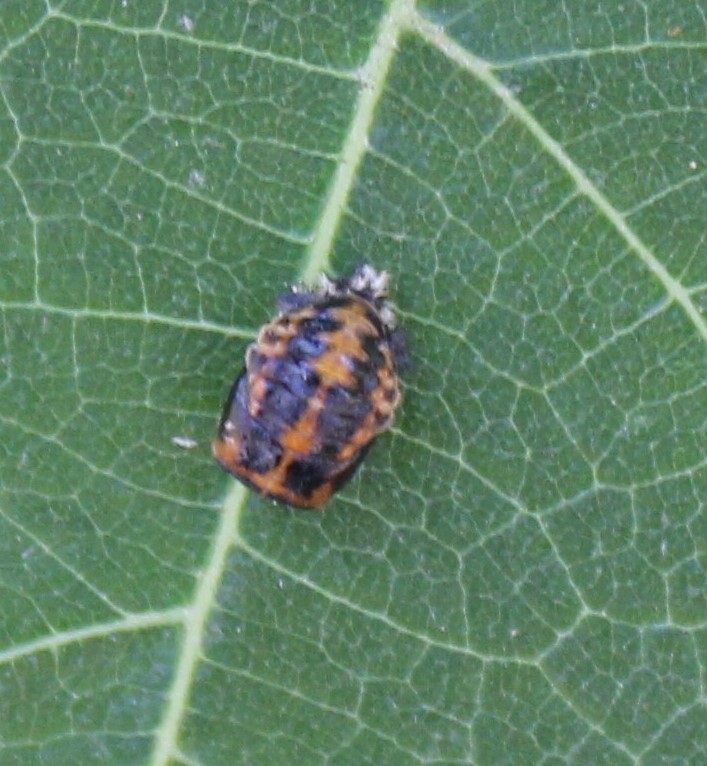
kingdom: Animalia
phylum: Arthropoda
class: Insecta
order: Coleoptera
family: Coccinellidae
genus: Harmonia
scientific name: Harmonia axyridis
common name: Harlequin ladybird
